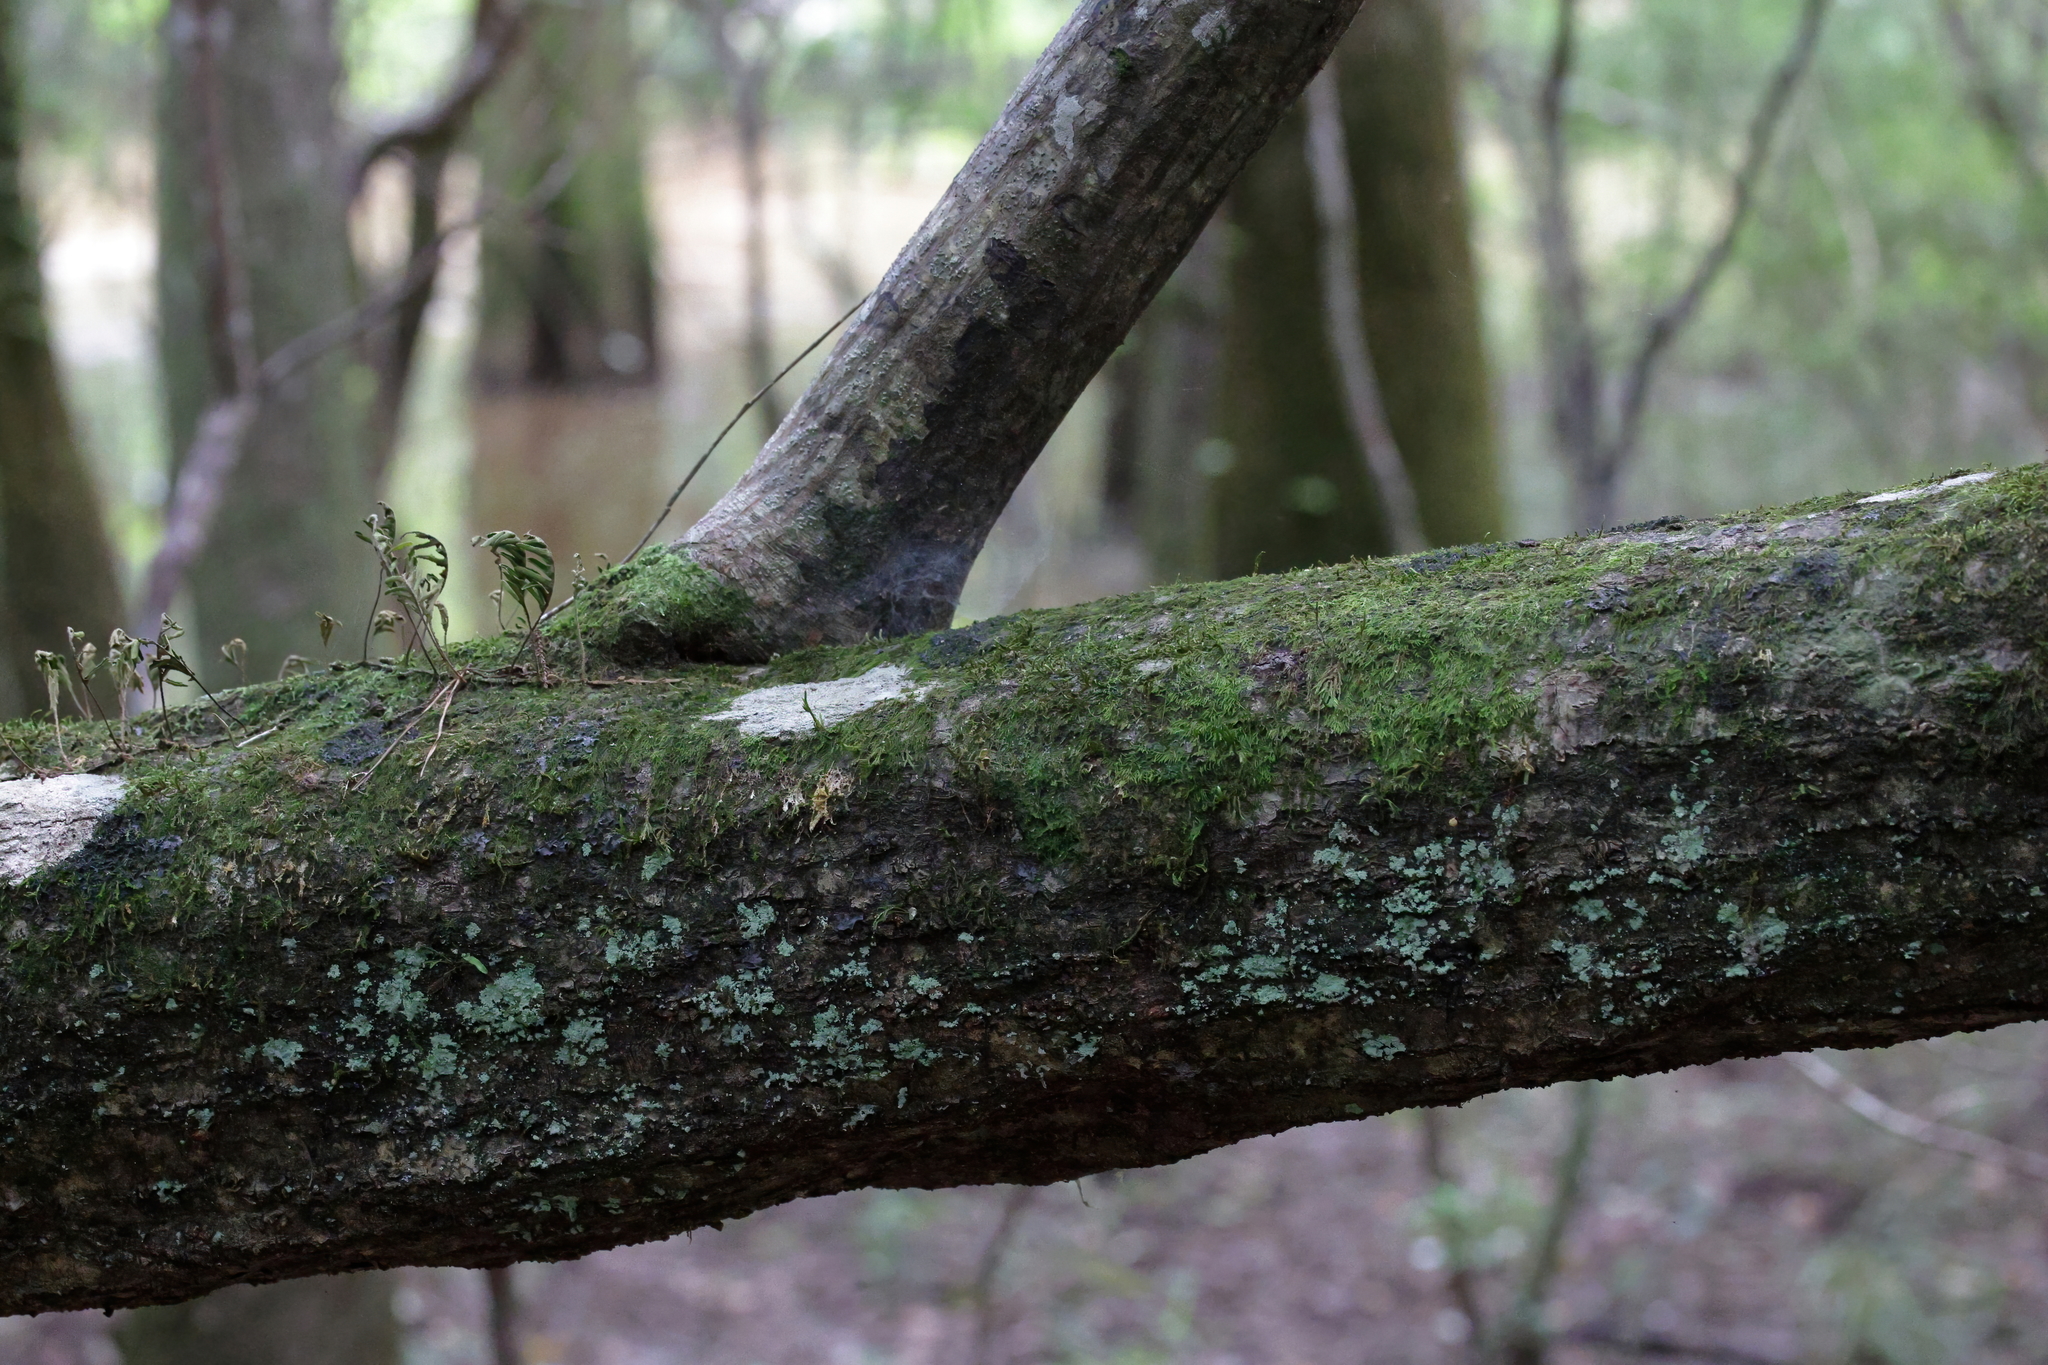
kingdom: Plantae
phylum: Tracheophyta
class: Magnoliopsida
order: Fagales
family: Betulaceae
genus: Carpinus
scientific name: Carpinus caroliniana
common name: American hornbeam
